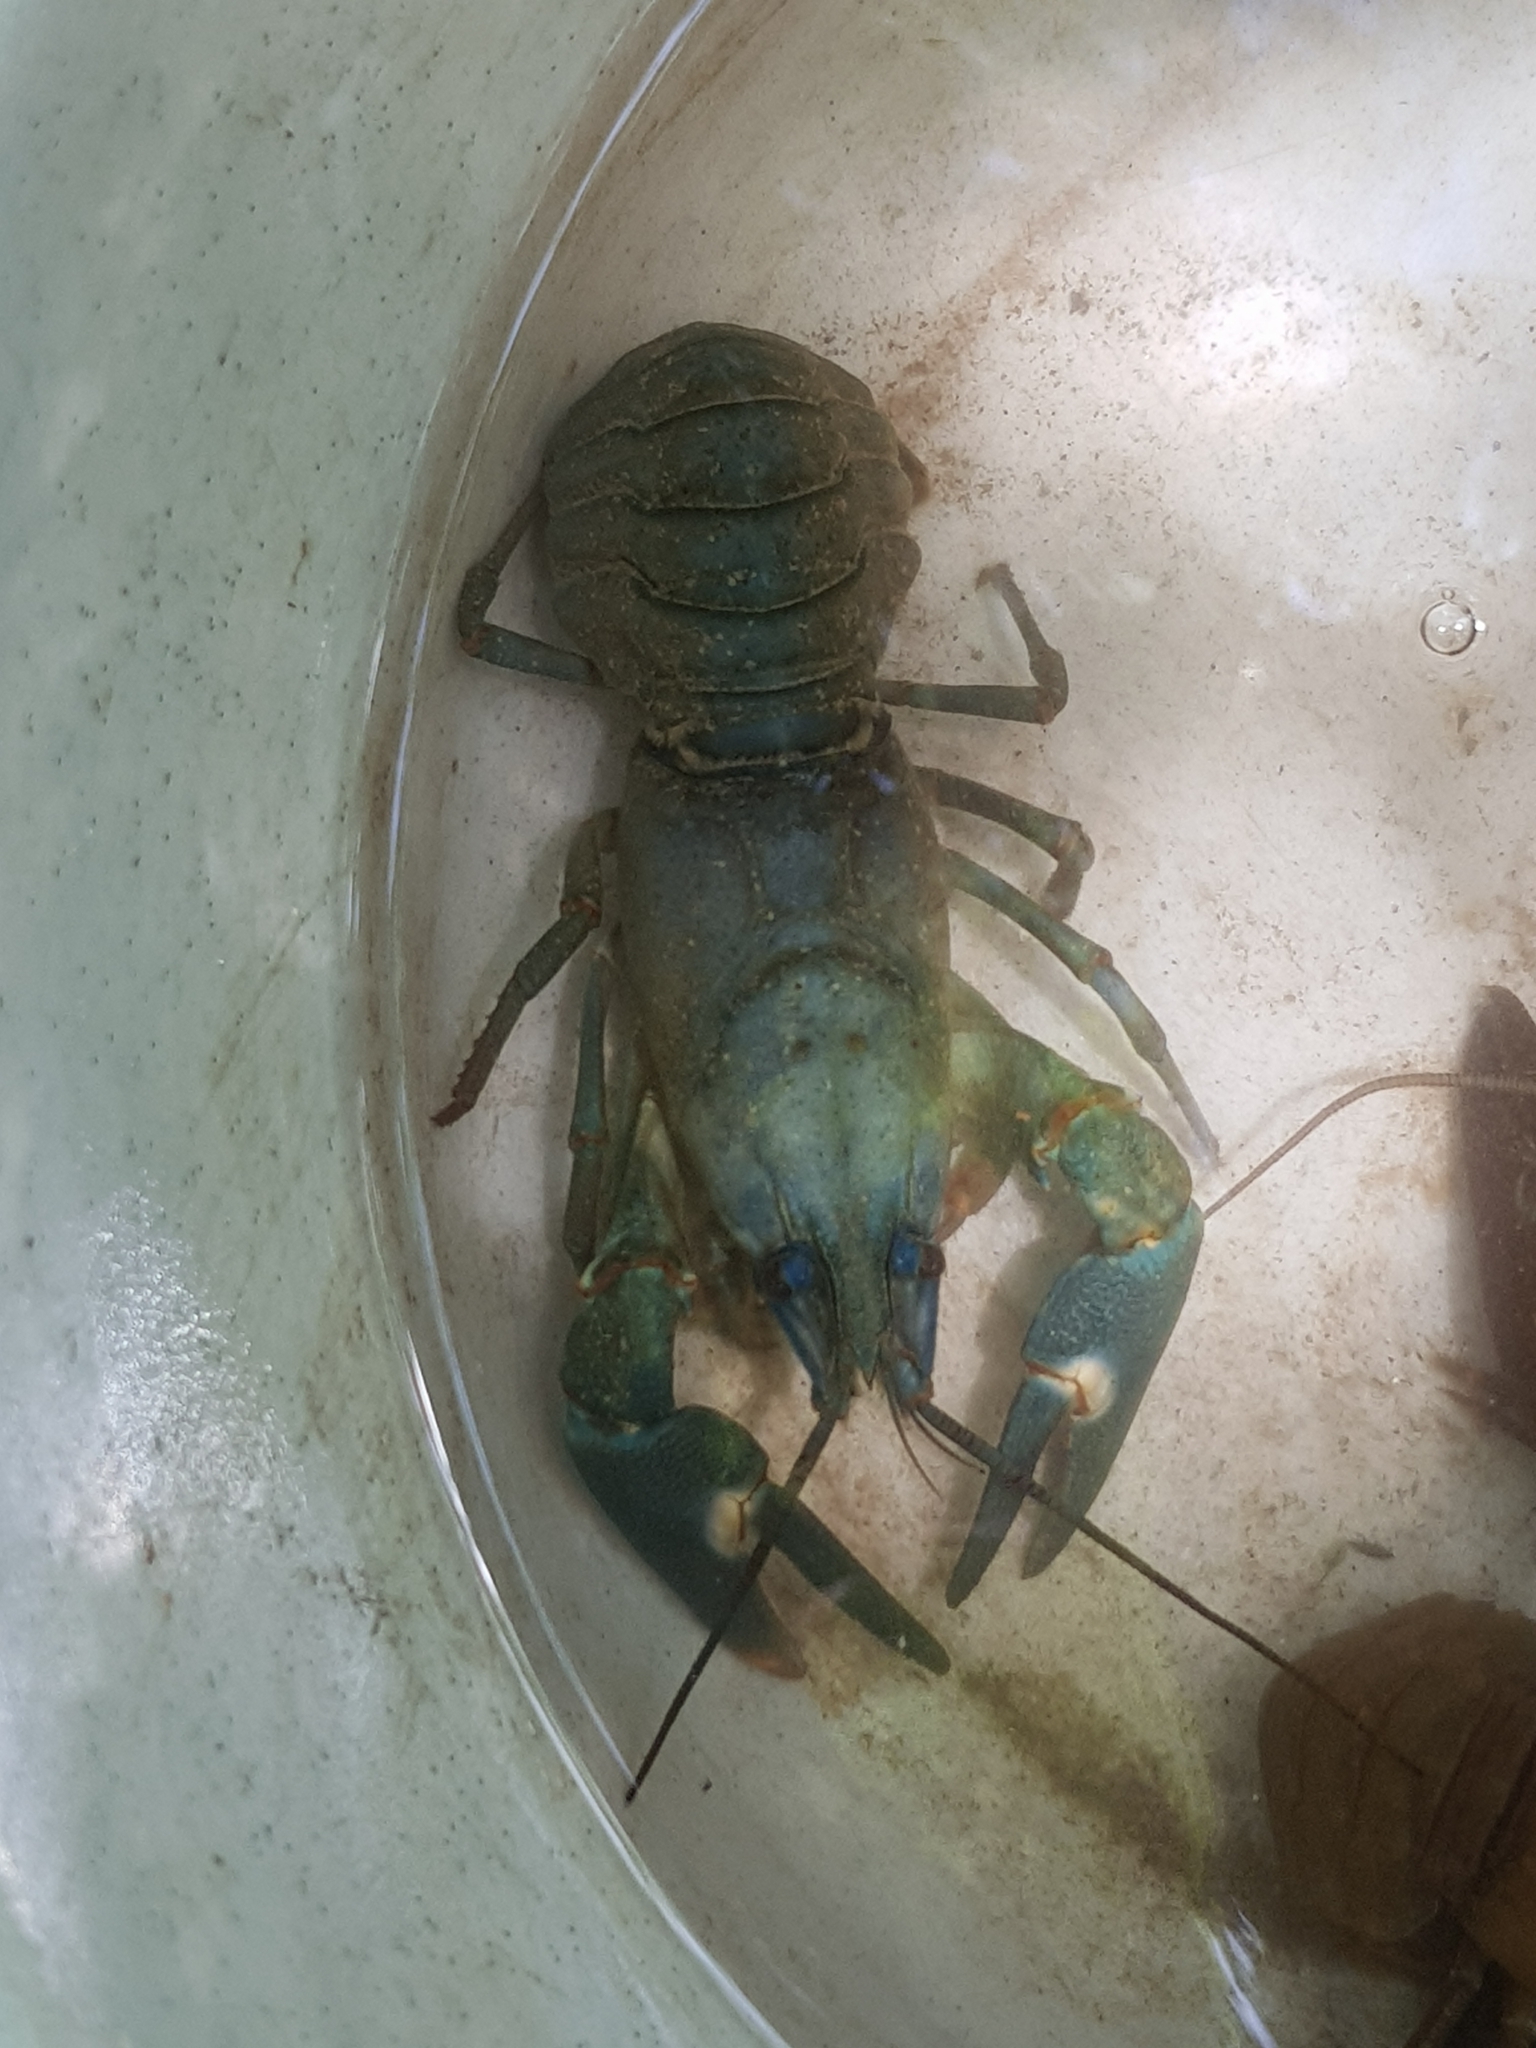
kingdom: Animalia
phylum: Arthropoda
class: Malacostraca
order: Decapoda
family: Astacidae
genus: Pacifastacus
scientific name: Pacifastacus leniusculus
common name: Signal crayfish
